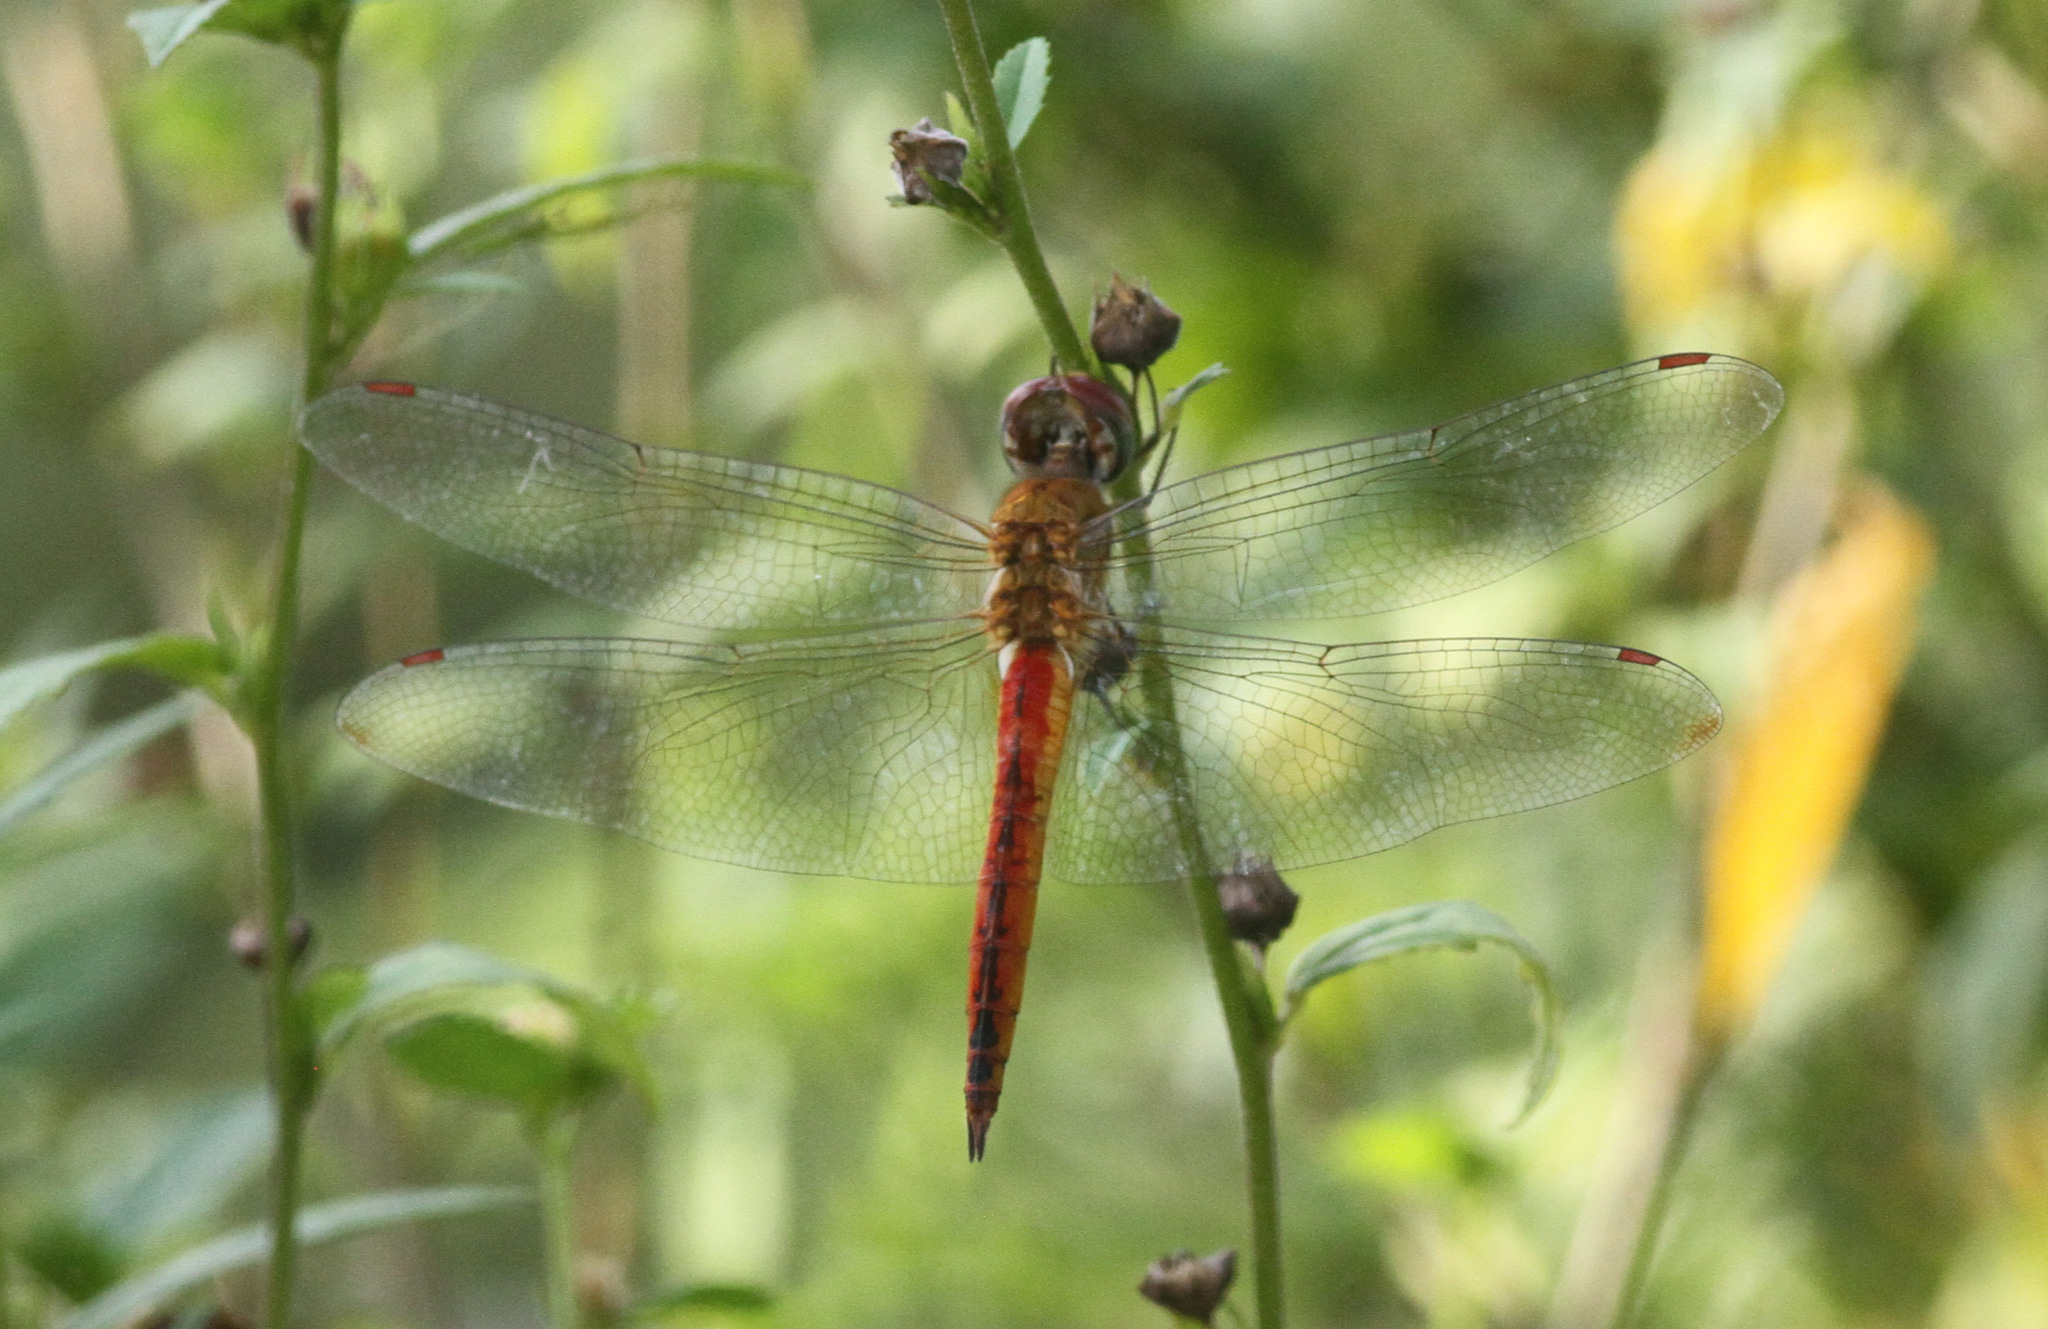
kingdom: Animalia
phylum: Arthropoda
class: Insecta
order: Odonata
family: Libellulidae
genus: Pantala
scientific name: Pantala flavescens
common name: Wandering glider
